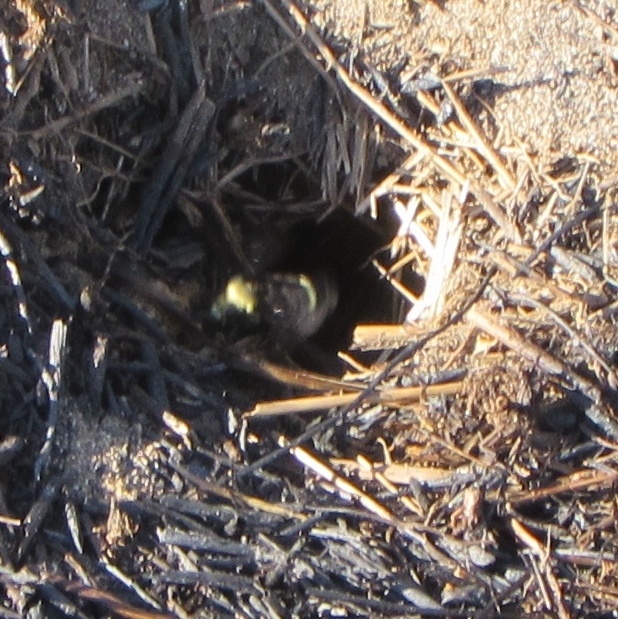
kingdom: Animalia
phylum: Arthropoda
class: Insecta
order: Hymenoptera
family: Apidae
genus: Bombus
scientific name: Bombus
